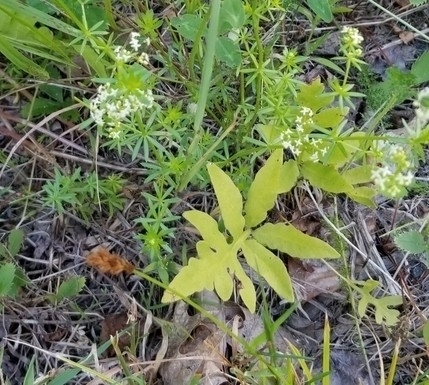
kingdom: Plantae
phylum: Tracheophyta
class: Polypodiopsida
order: Polypodiales
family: Onocleaceae
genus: Onoclea
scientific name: Onoclea sensibilis
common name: Sensitive fern
